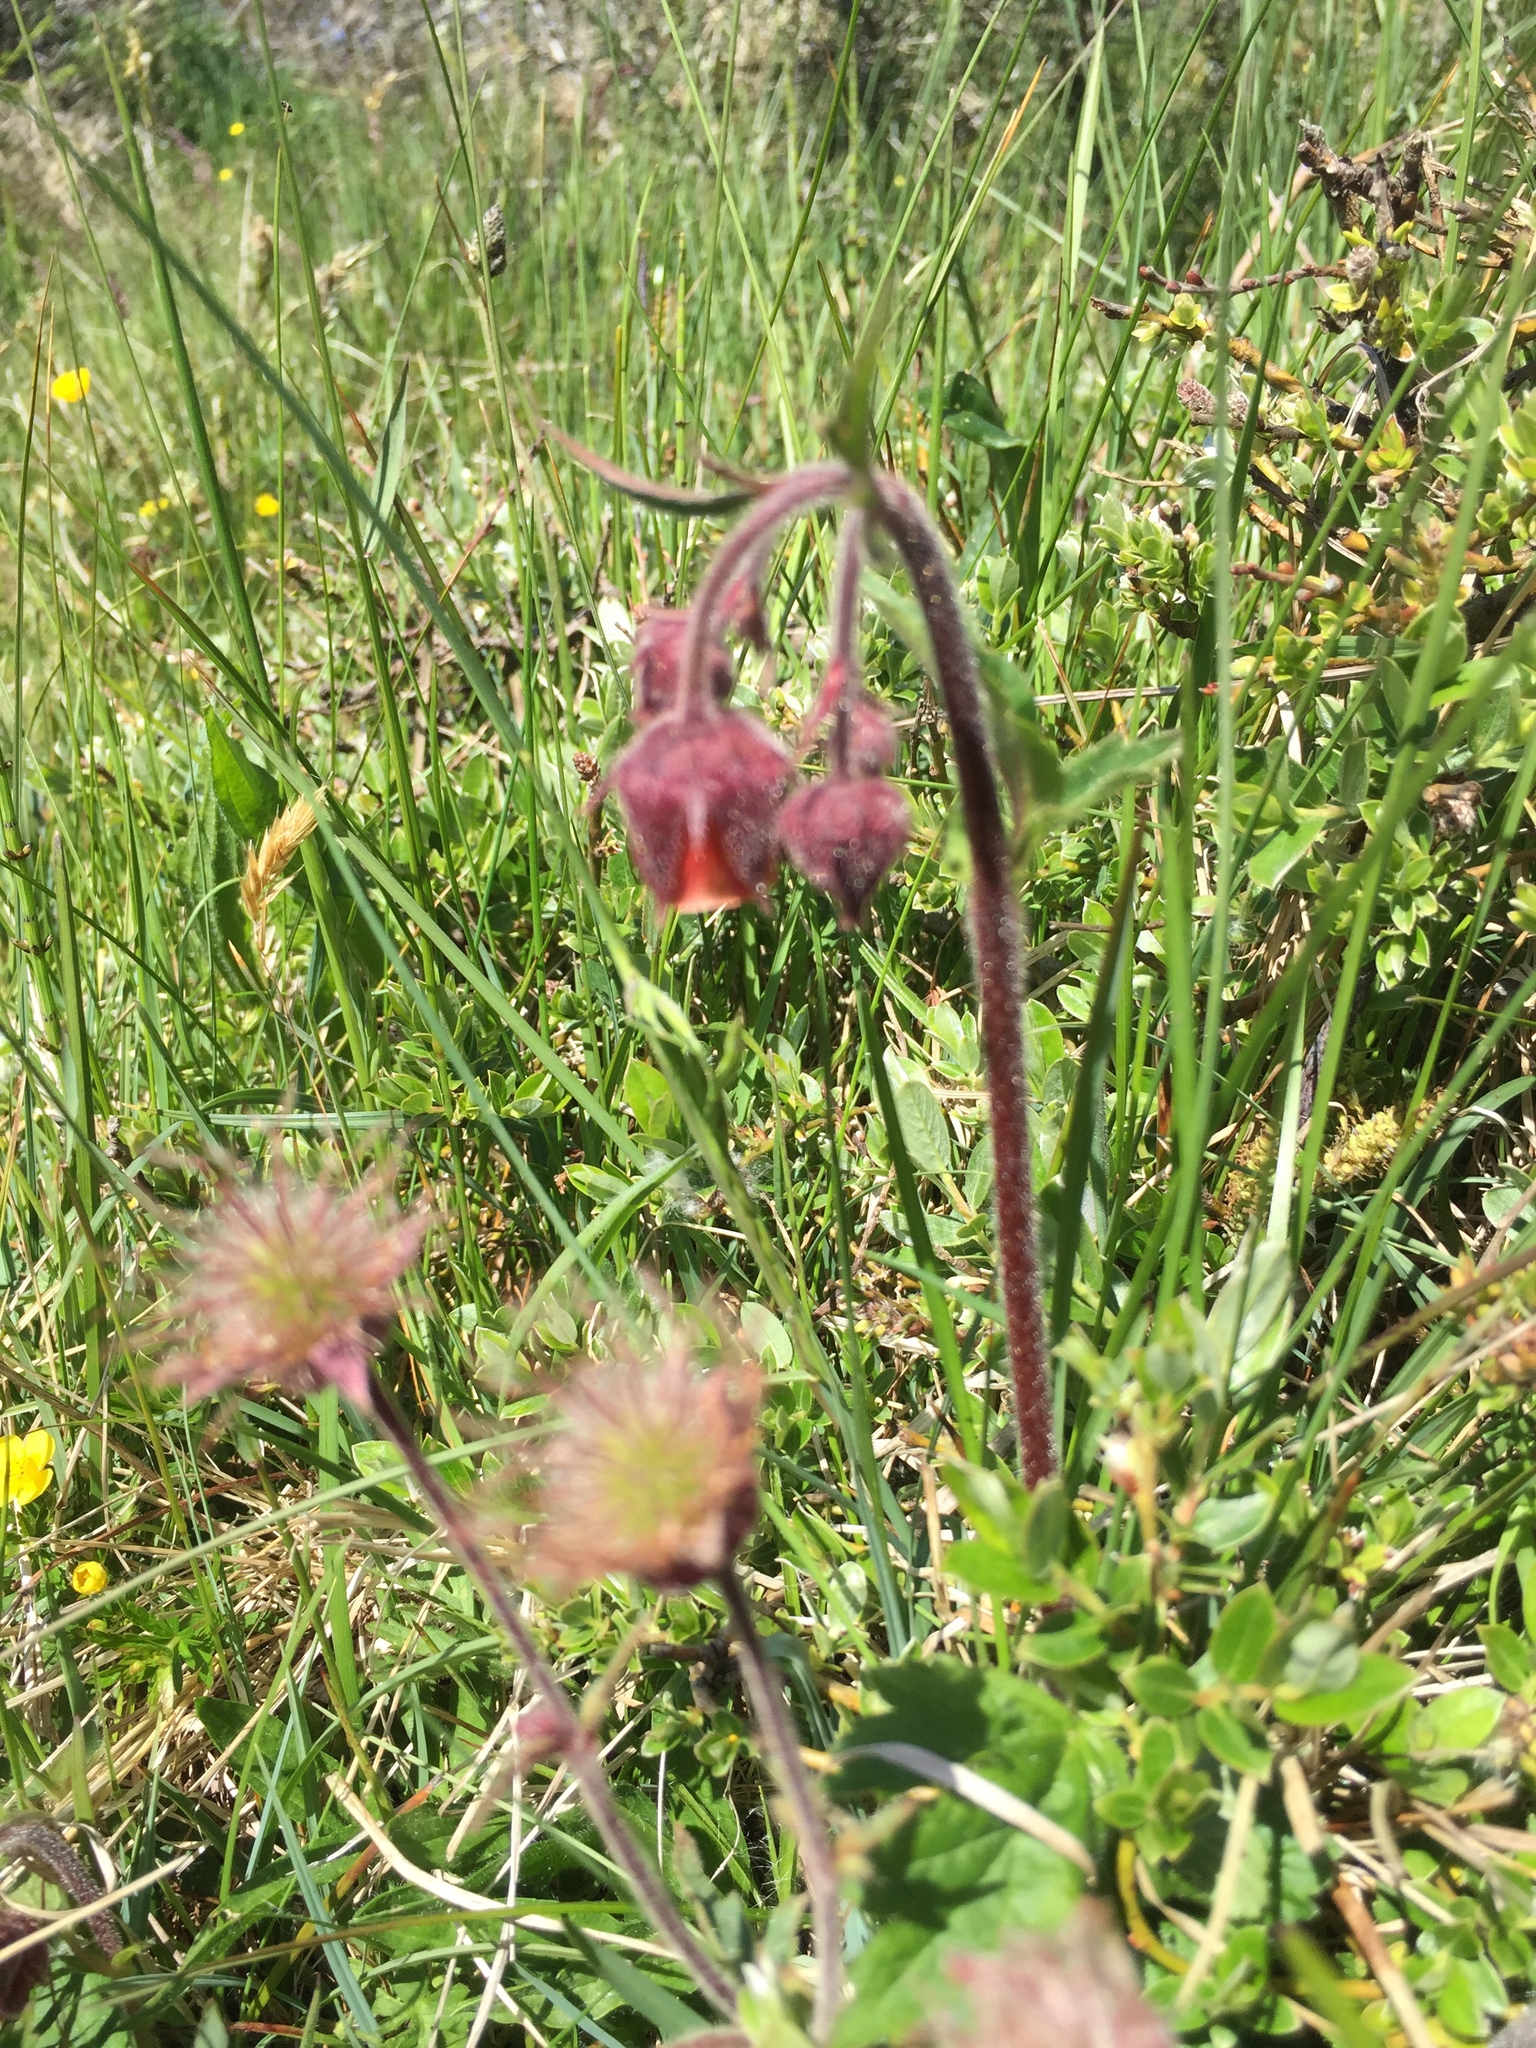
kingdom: Plantae
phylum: Tracheophyta
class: Magnoliopsida
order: Rosales
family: Rosaceae
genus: Geum
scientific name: Geum rivale
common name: Water avens
